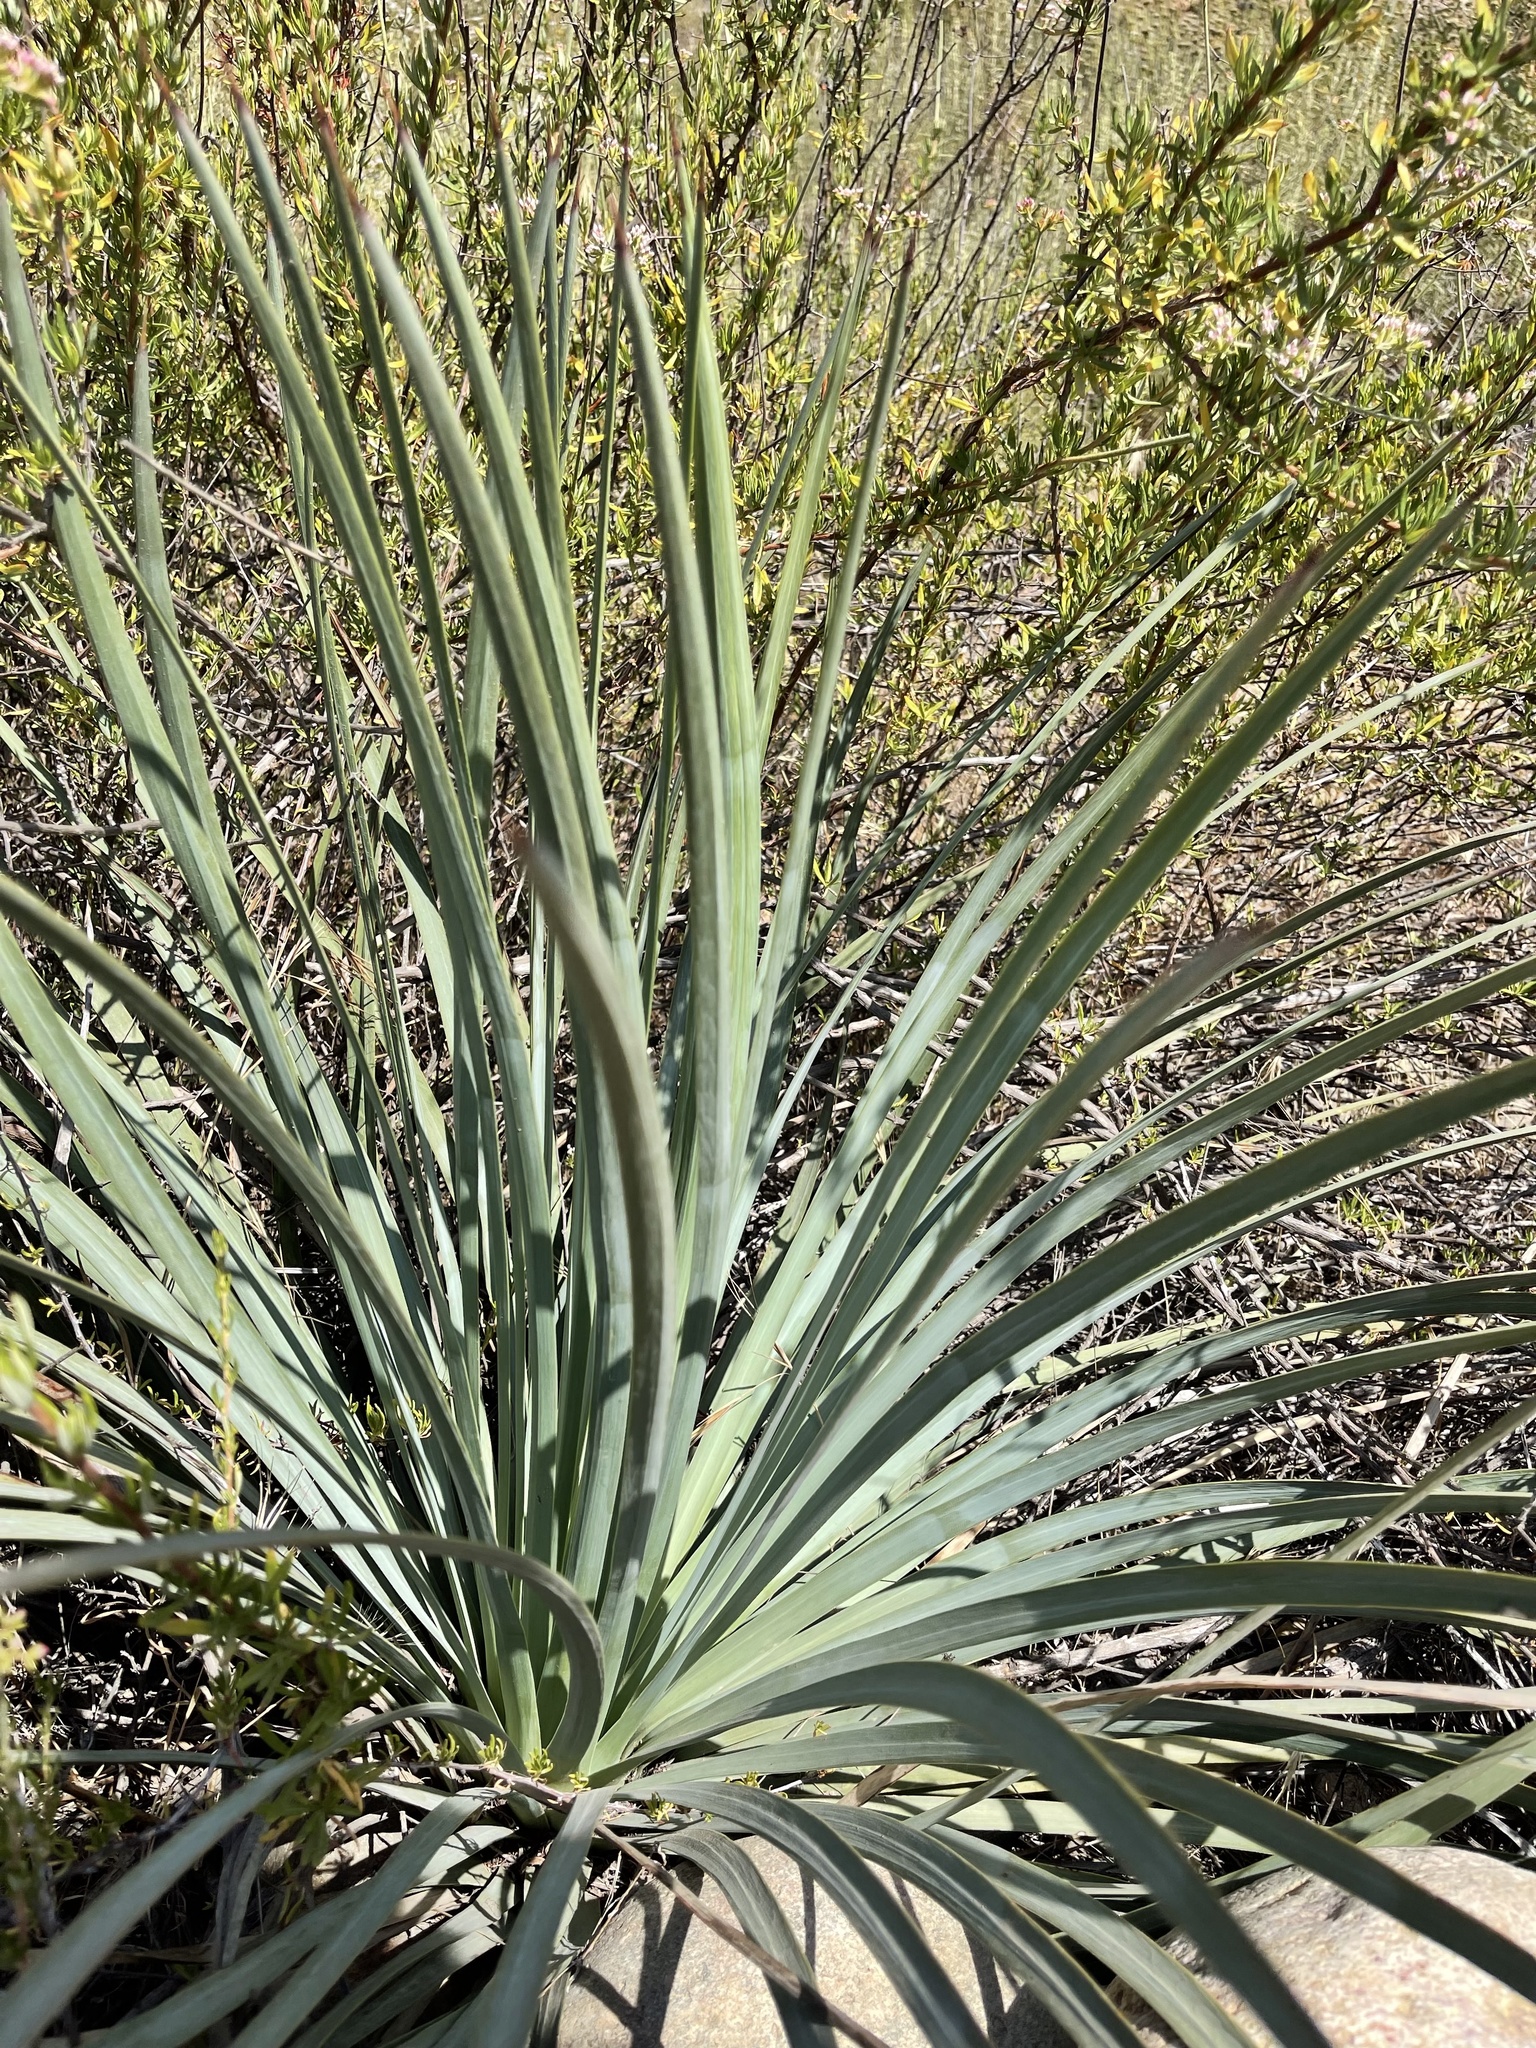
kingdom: Plantae
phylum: Tracheophyta
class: Liliopsida
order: Asparagales
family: Asparagaceae
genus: Hesperoyucca
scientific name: Hesperoyucca whipplei
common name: Our lord's-candle
